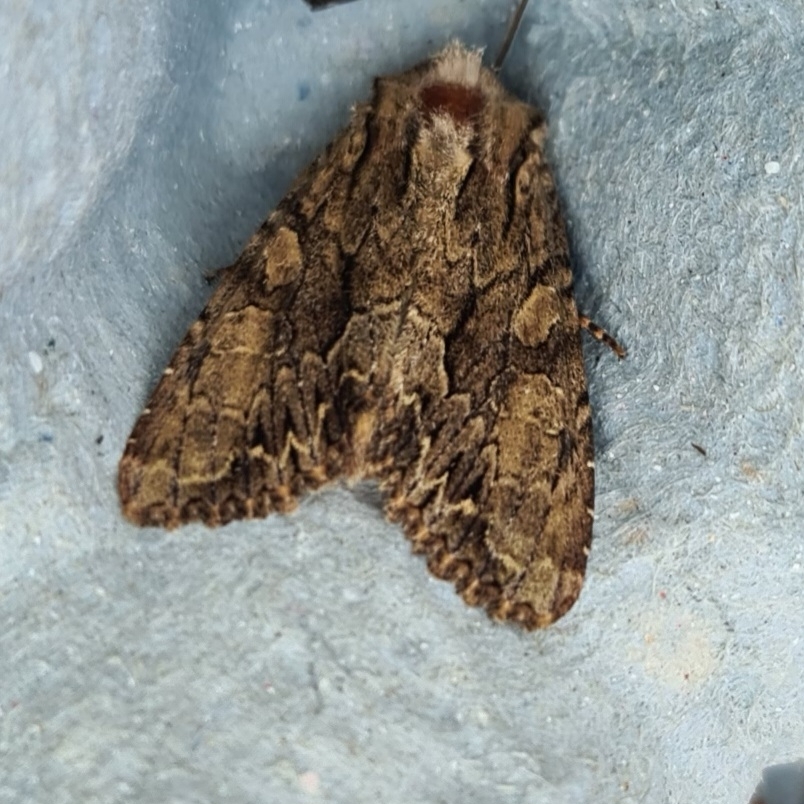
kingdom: Animalia
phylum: Arthropoda
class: Insecta
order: Lepidoptera
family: Noctuidae
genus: Apamea
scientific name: Apamea monoglypha
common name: Dark arches
